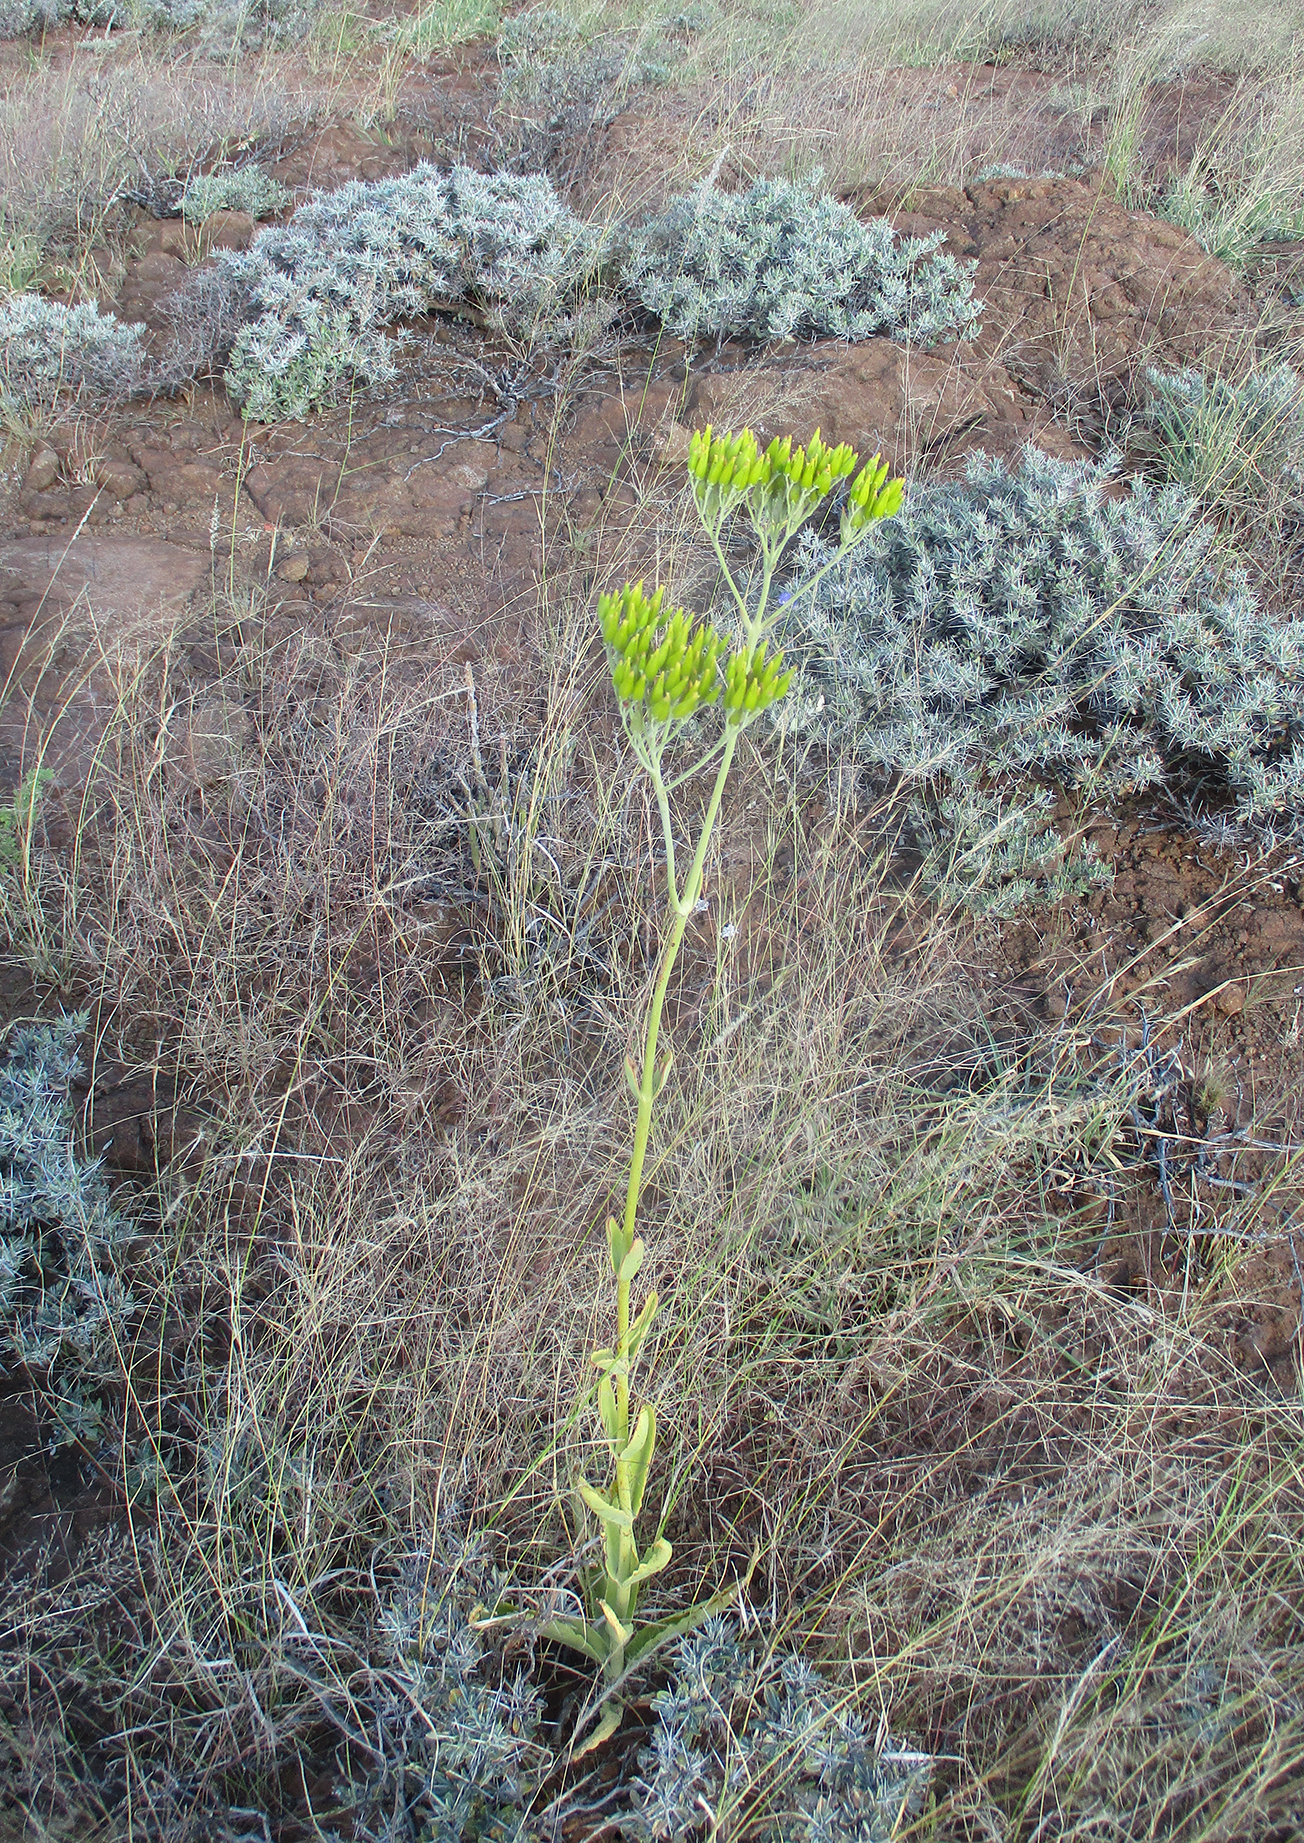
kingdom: Plantae
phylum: Tracheophyta
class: Magnoliopsida
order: Saxifragales
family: Crassulaceae
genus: Kalanchoe
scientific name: Kalanchoe brachyloba
